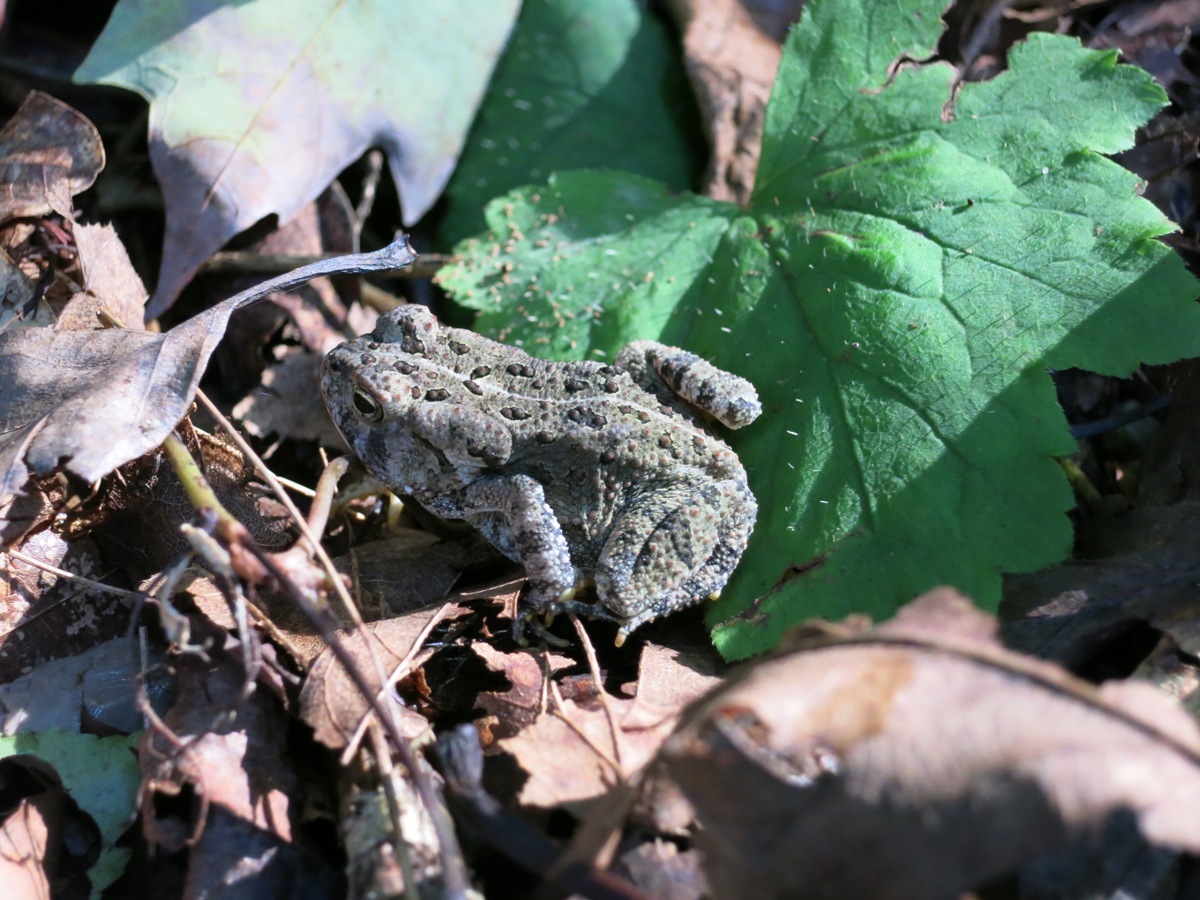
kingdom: Animalia
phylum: Chordata
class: Amphibia
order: Anura
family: Bufonidae
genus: Anaxyrus
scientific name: Anaxyrus fowleri
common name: Fowler's toad
